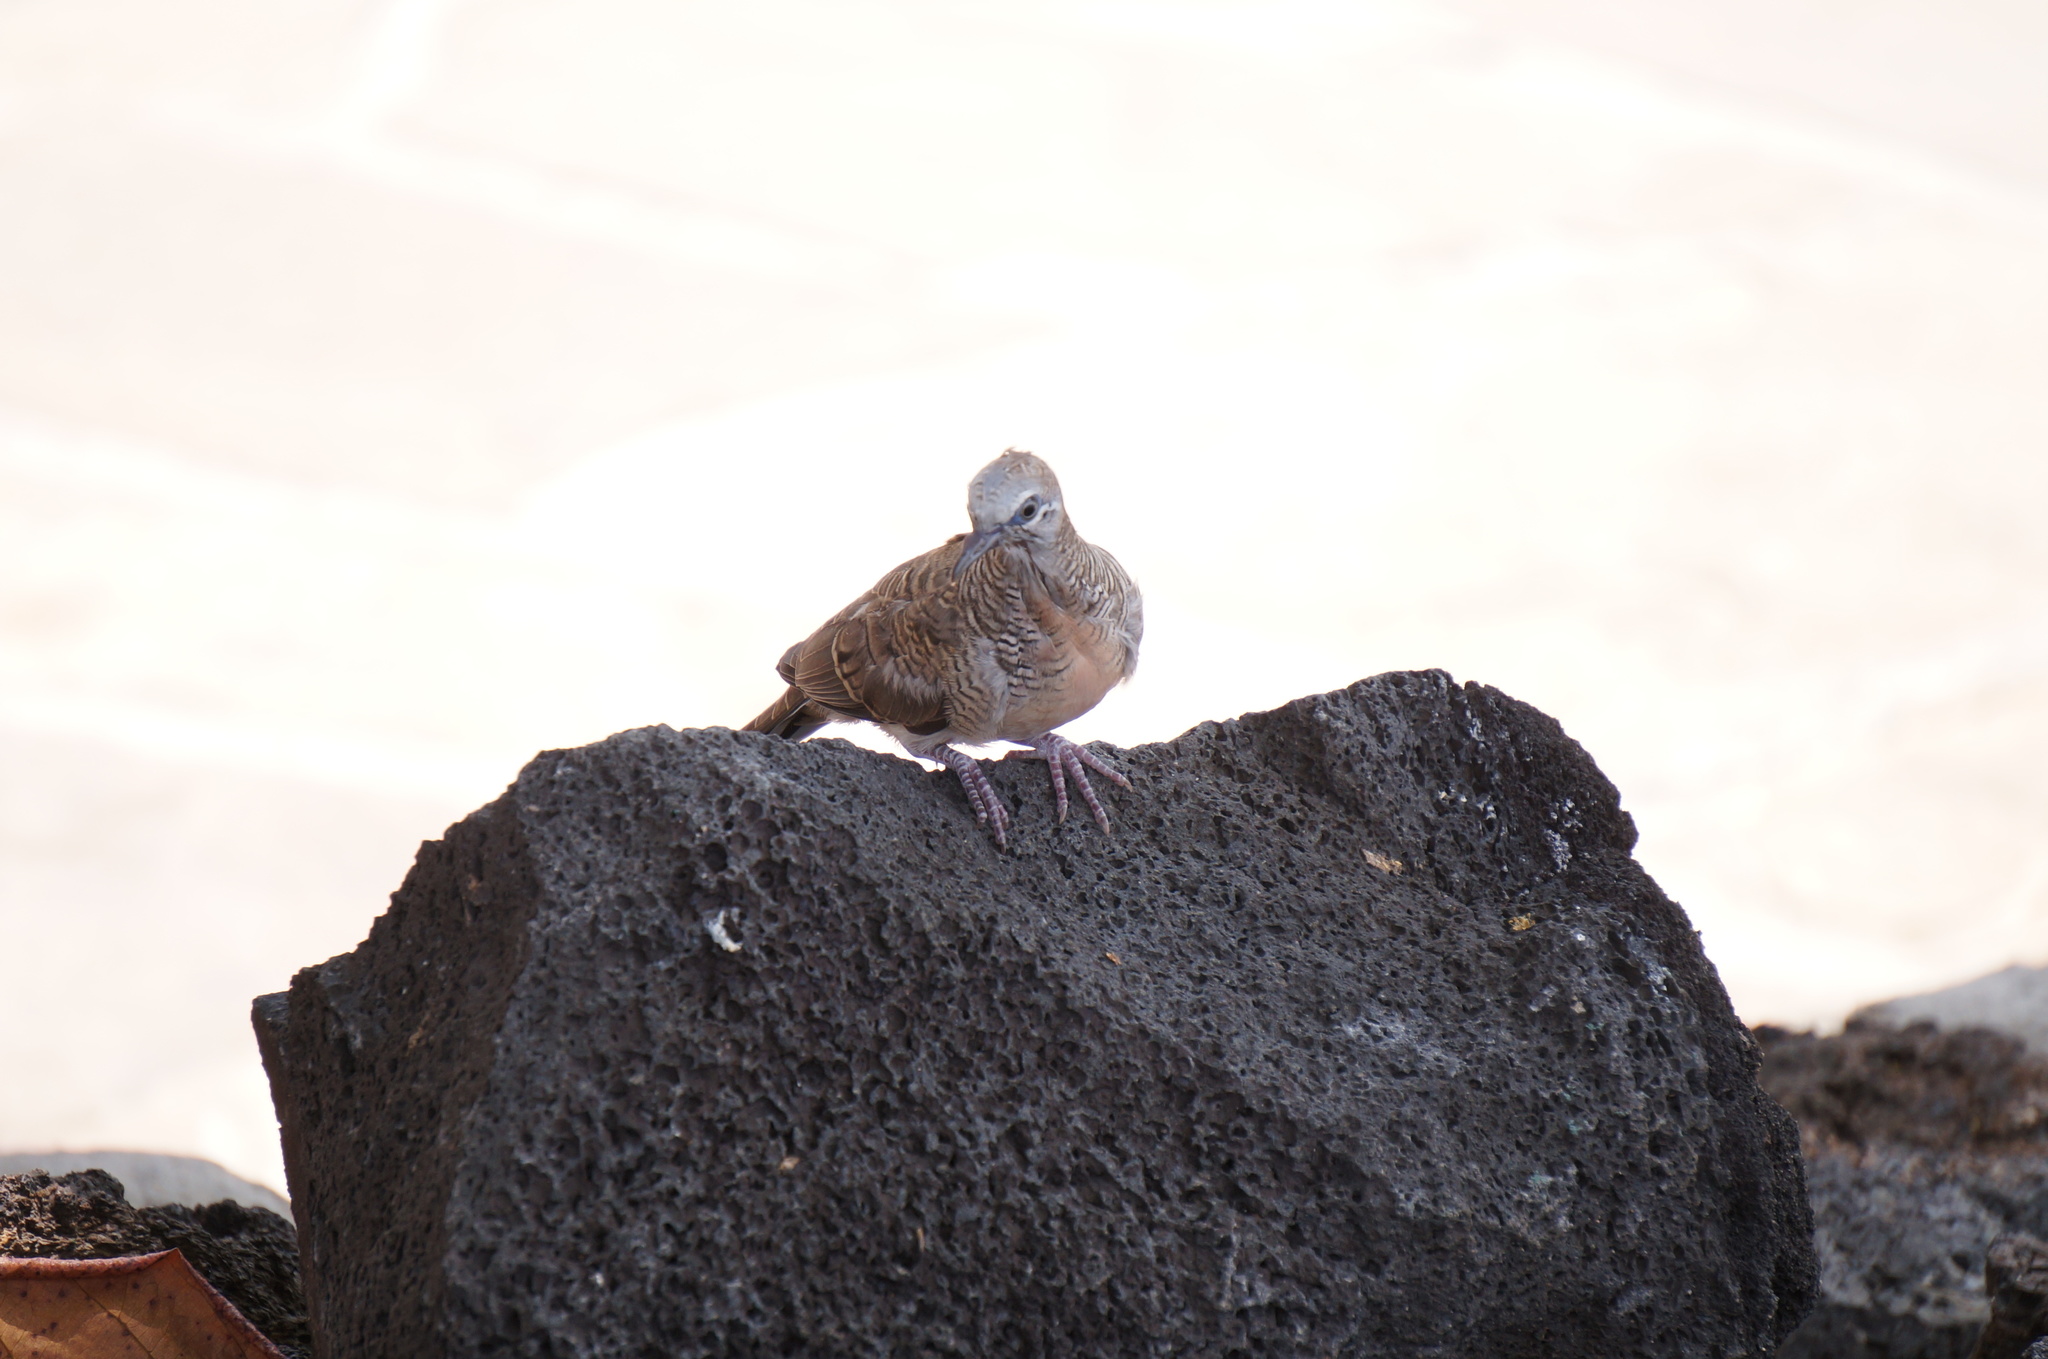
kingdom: Animalia
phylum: Chordata
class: Aves
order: Columbiformes
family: Columbidae
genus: Geopelia
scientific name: Geopelia striata
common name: Zebra dove
